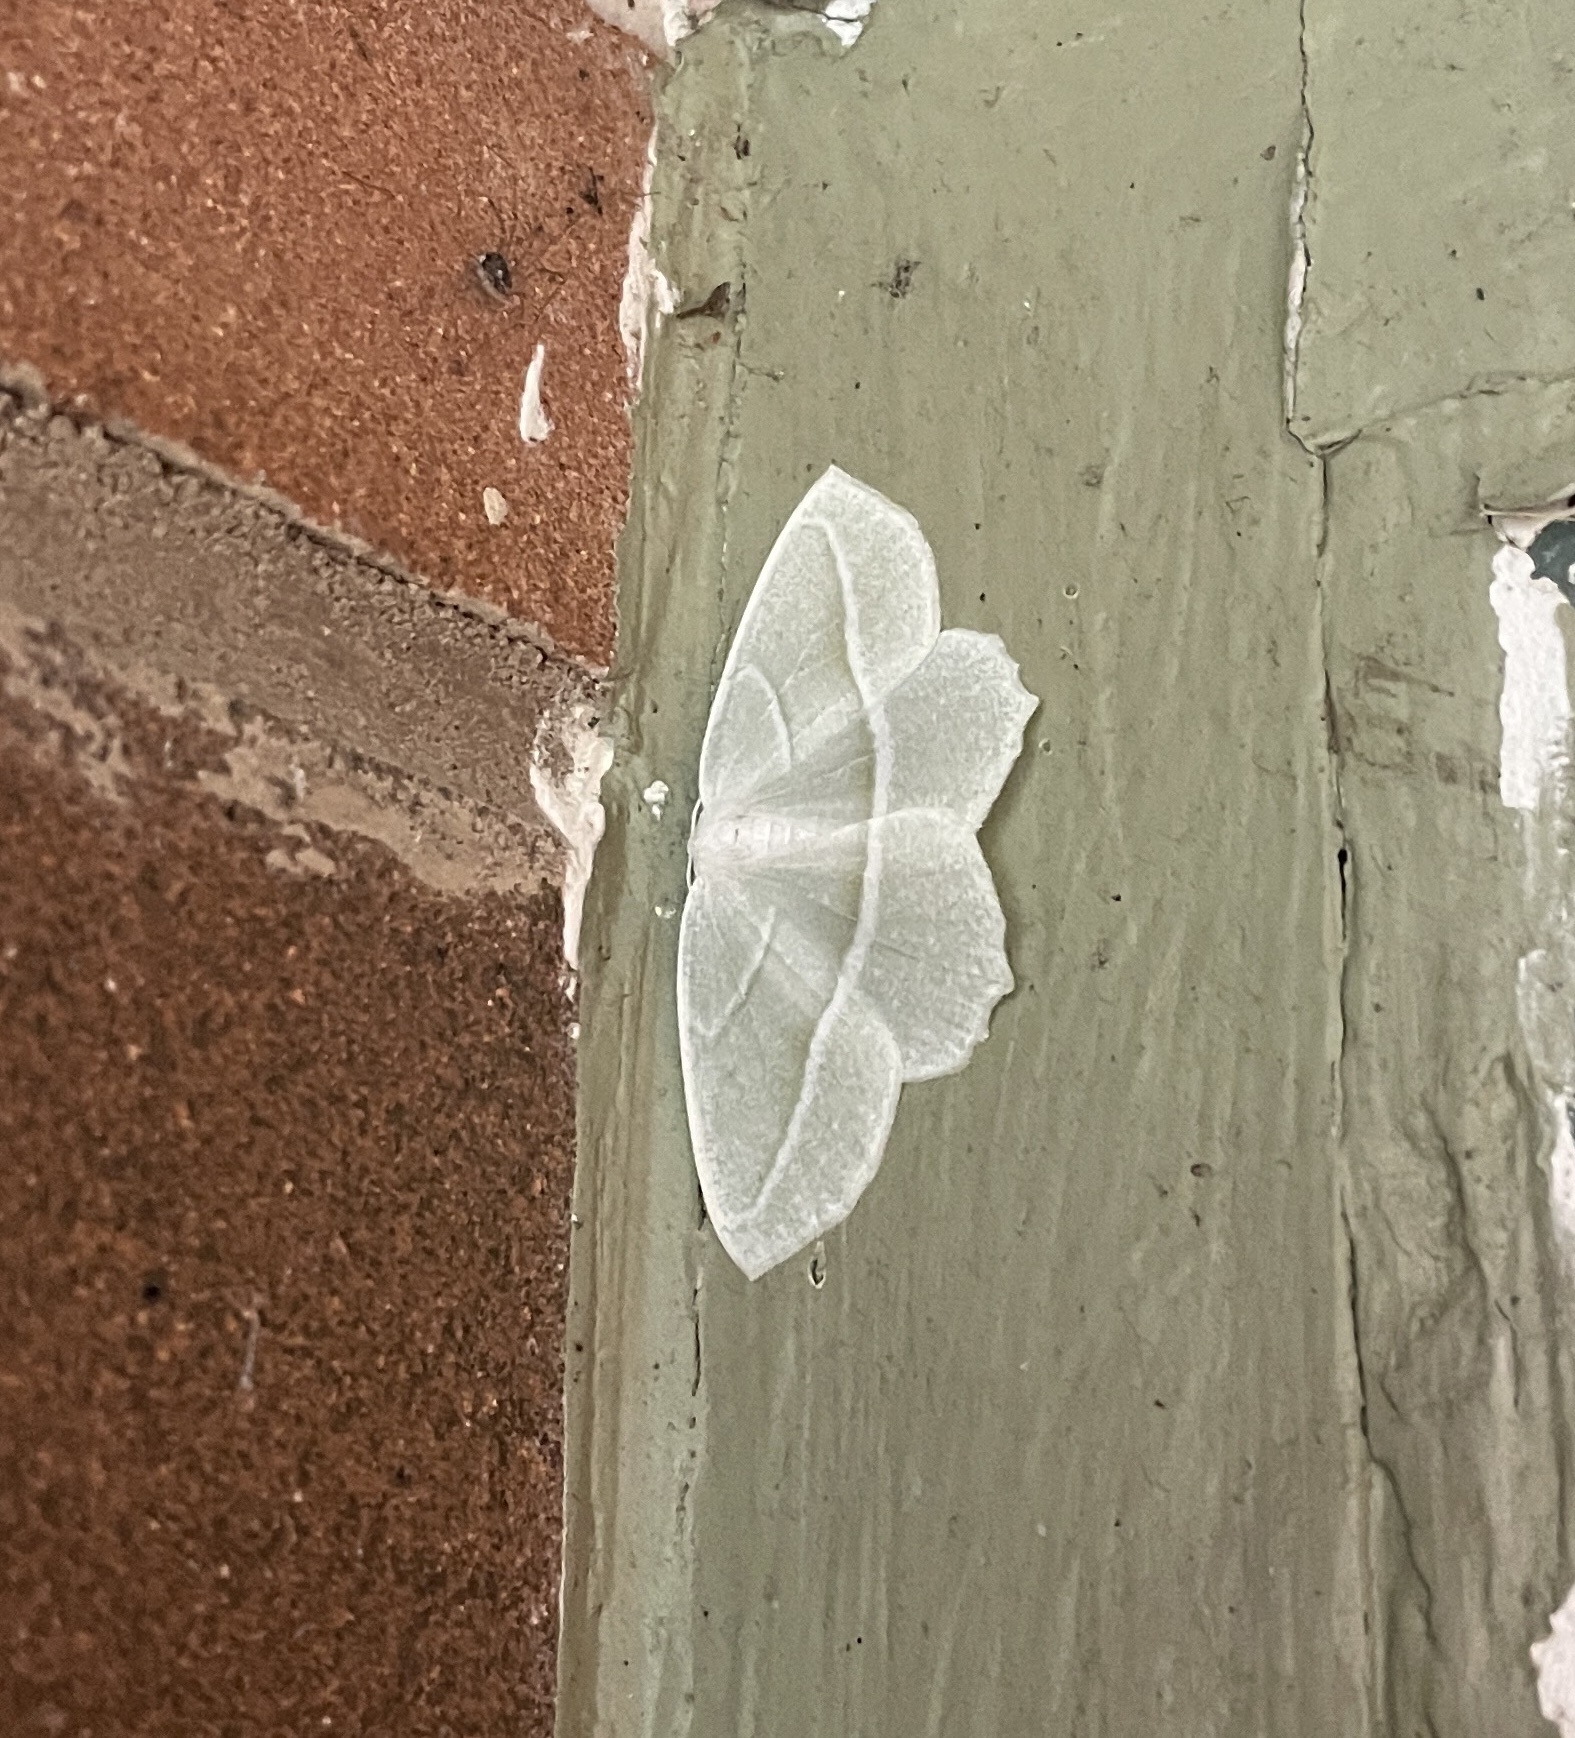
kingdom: Animalia
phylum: Arthropoda
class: Insecta
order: Lepidoptera
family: Geometridae
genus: Campaea
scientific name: Campaea perlata
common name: Fringed looper
